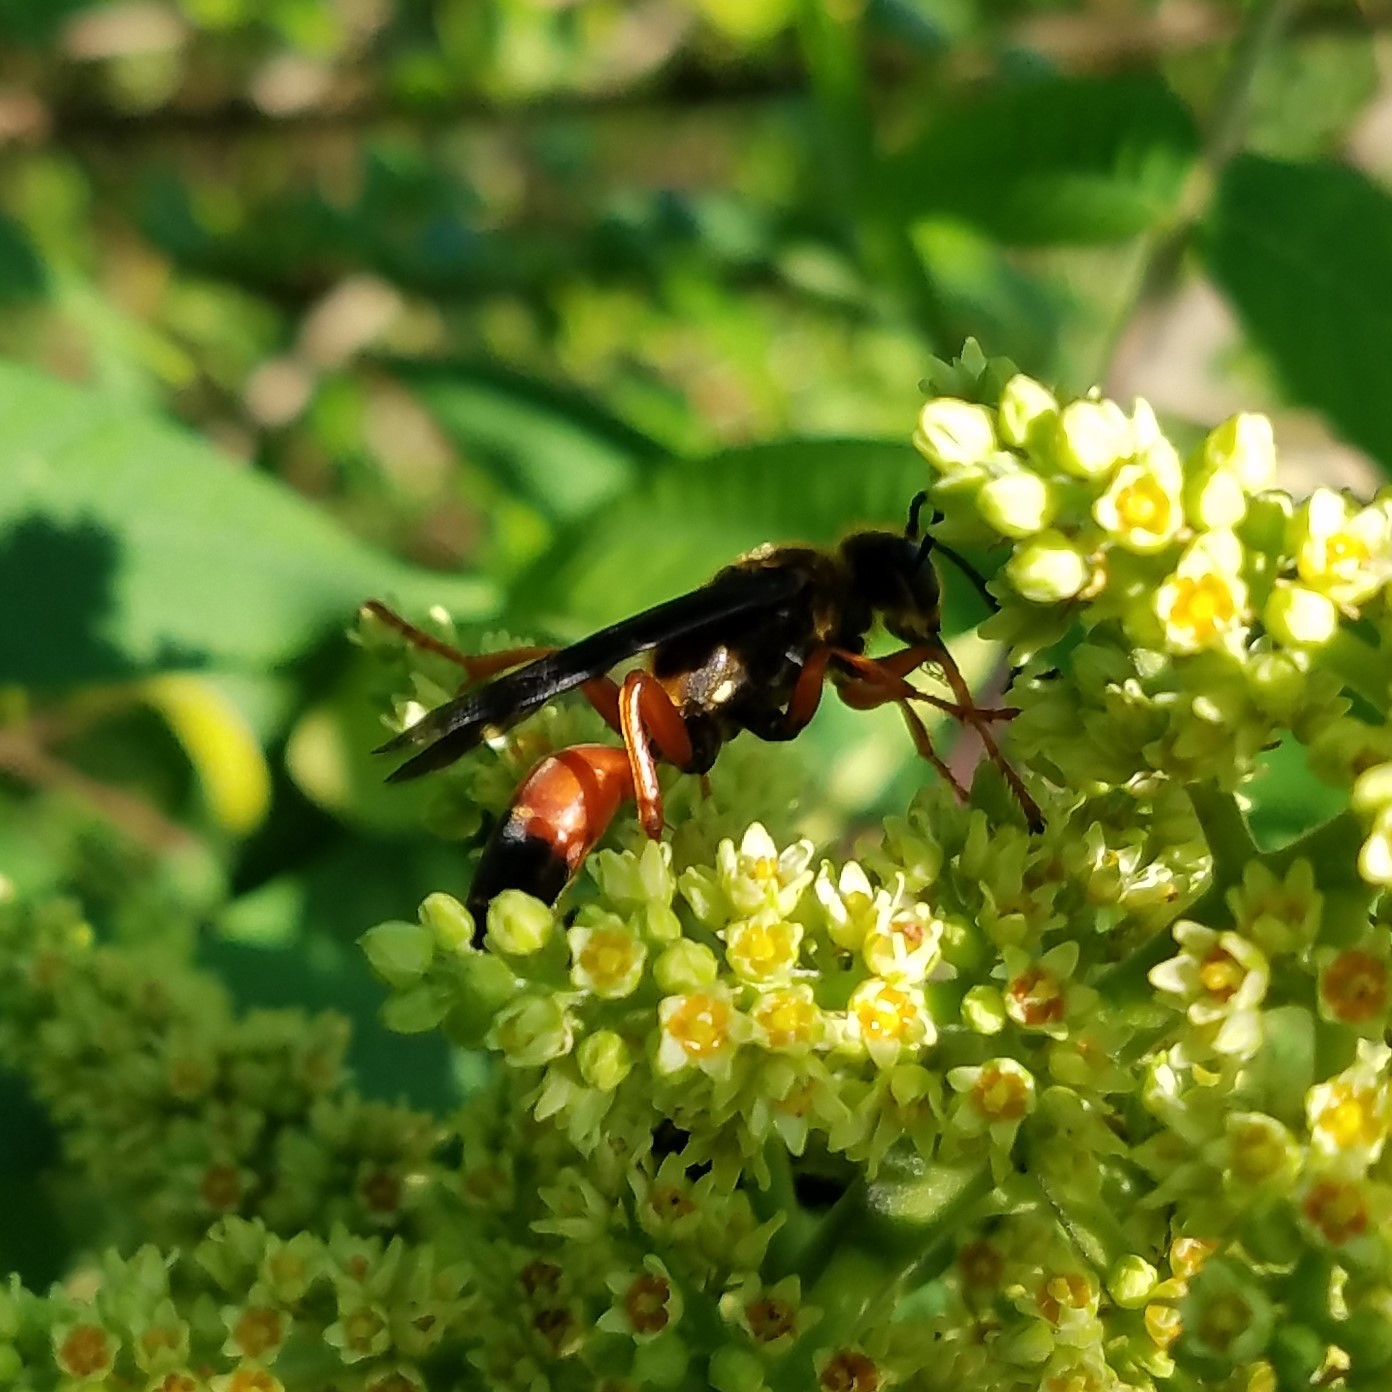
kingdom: Animalia
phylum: Arthropoda
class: Insecta
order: Hymenoptera
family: Sphecidae
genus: Sphex
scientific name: Sphex ichneumoneus
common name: Great golden digger wasp
